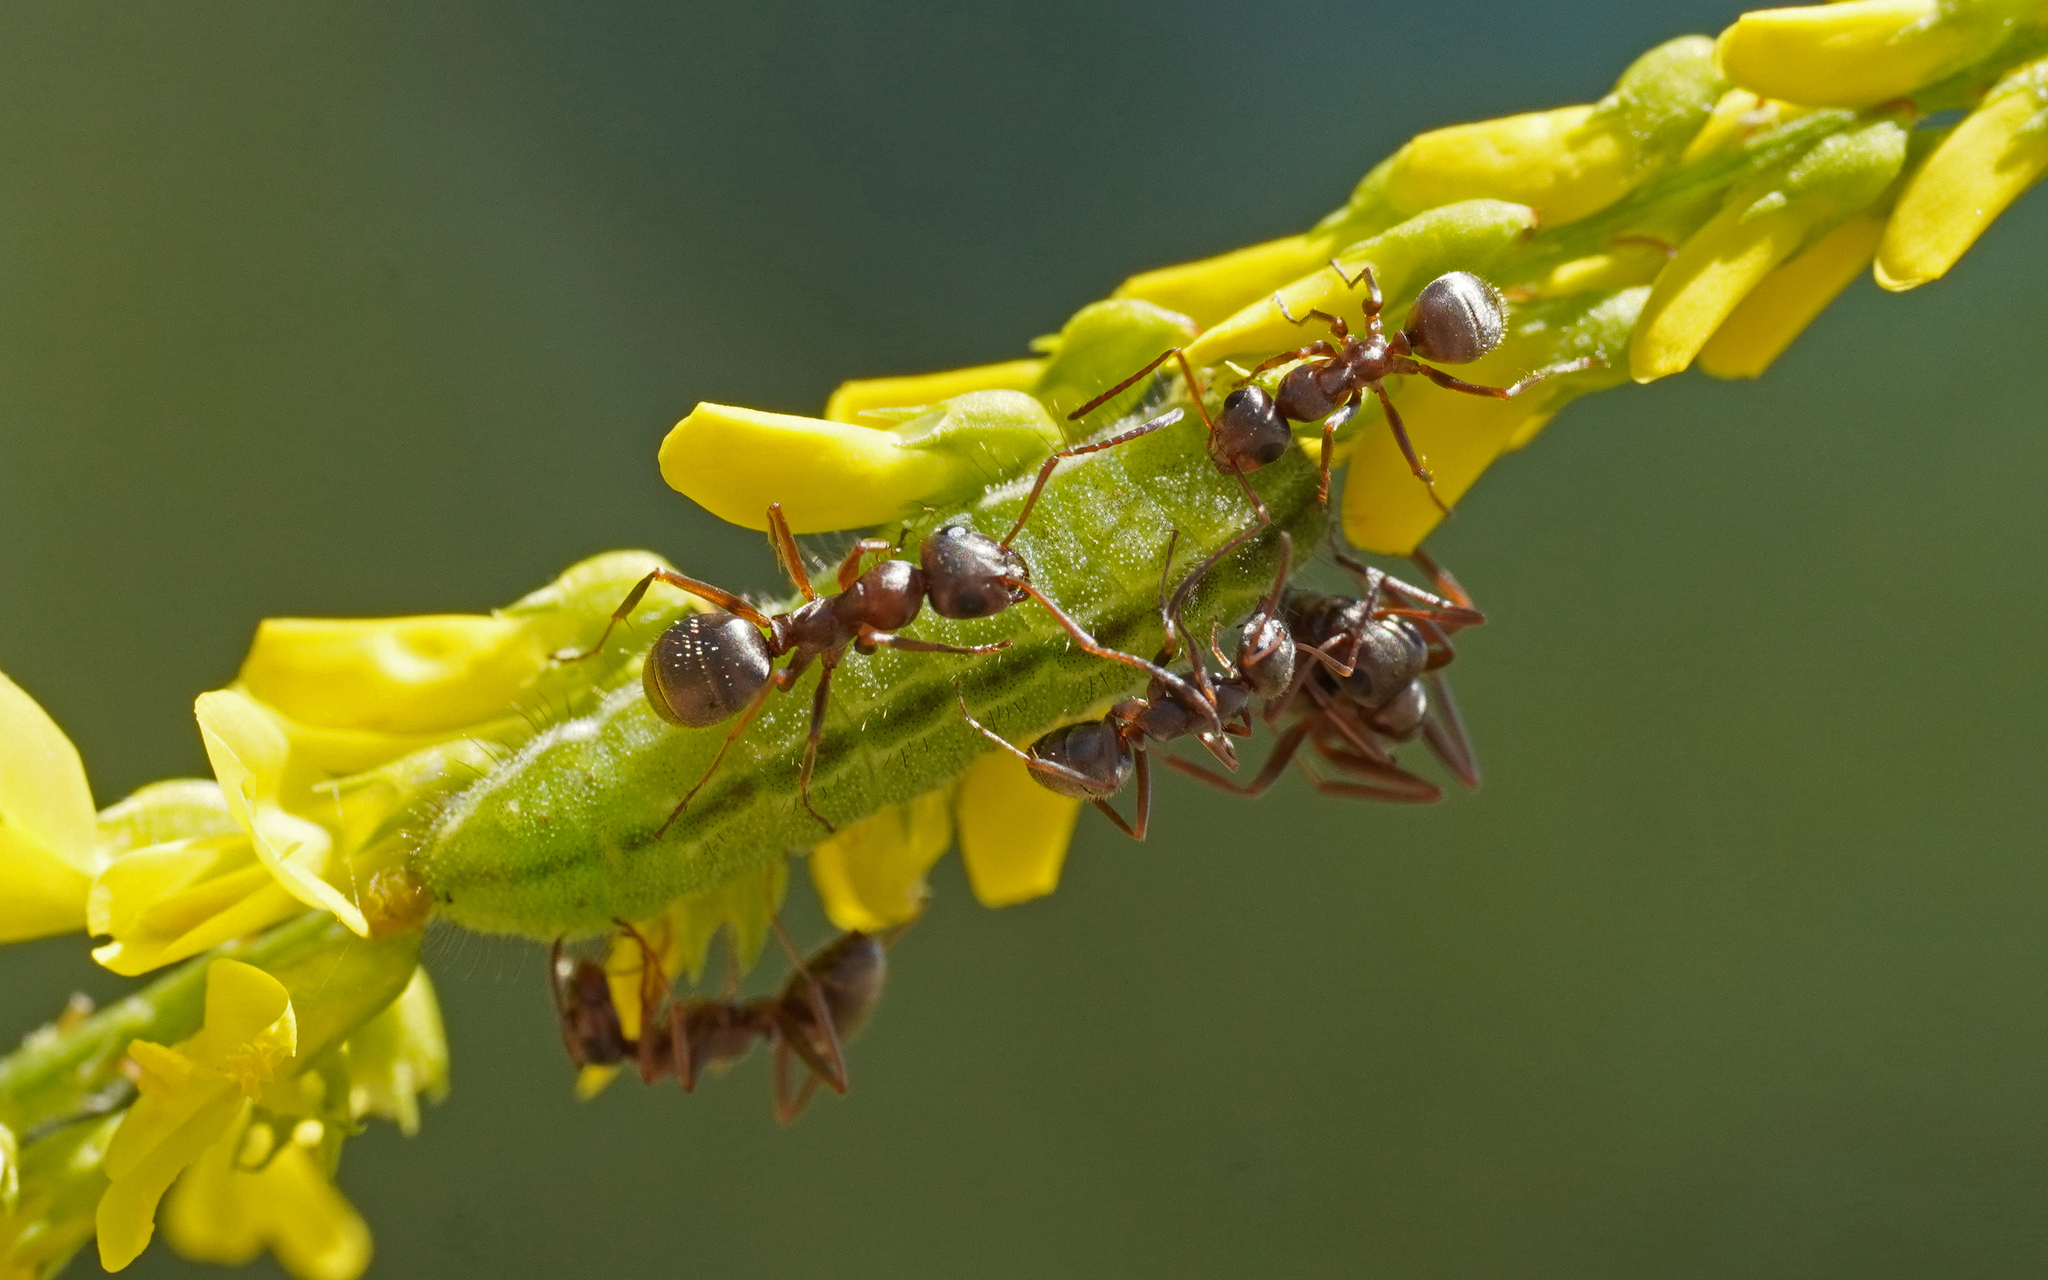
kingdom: Animalia
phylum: Arthropoda
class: Insecta
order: Lepidoptera
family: Lycaenidae
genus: Lycaeides
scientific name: Lycaeides idas
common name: Northern blue
